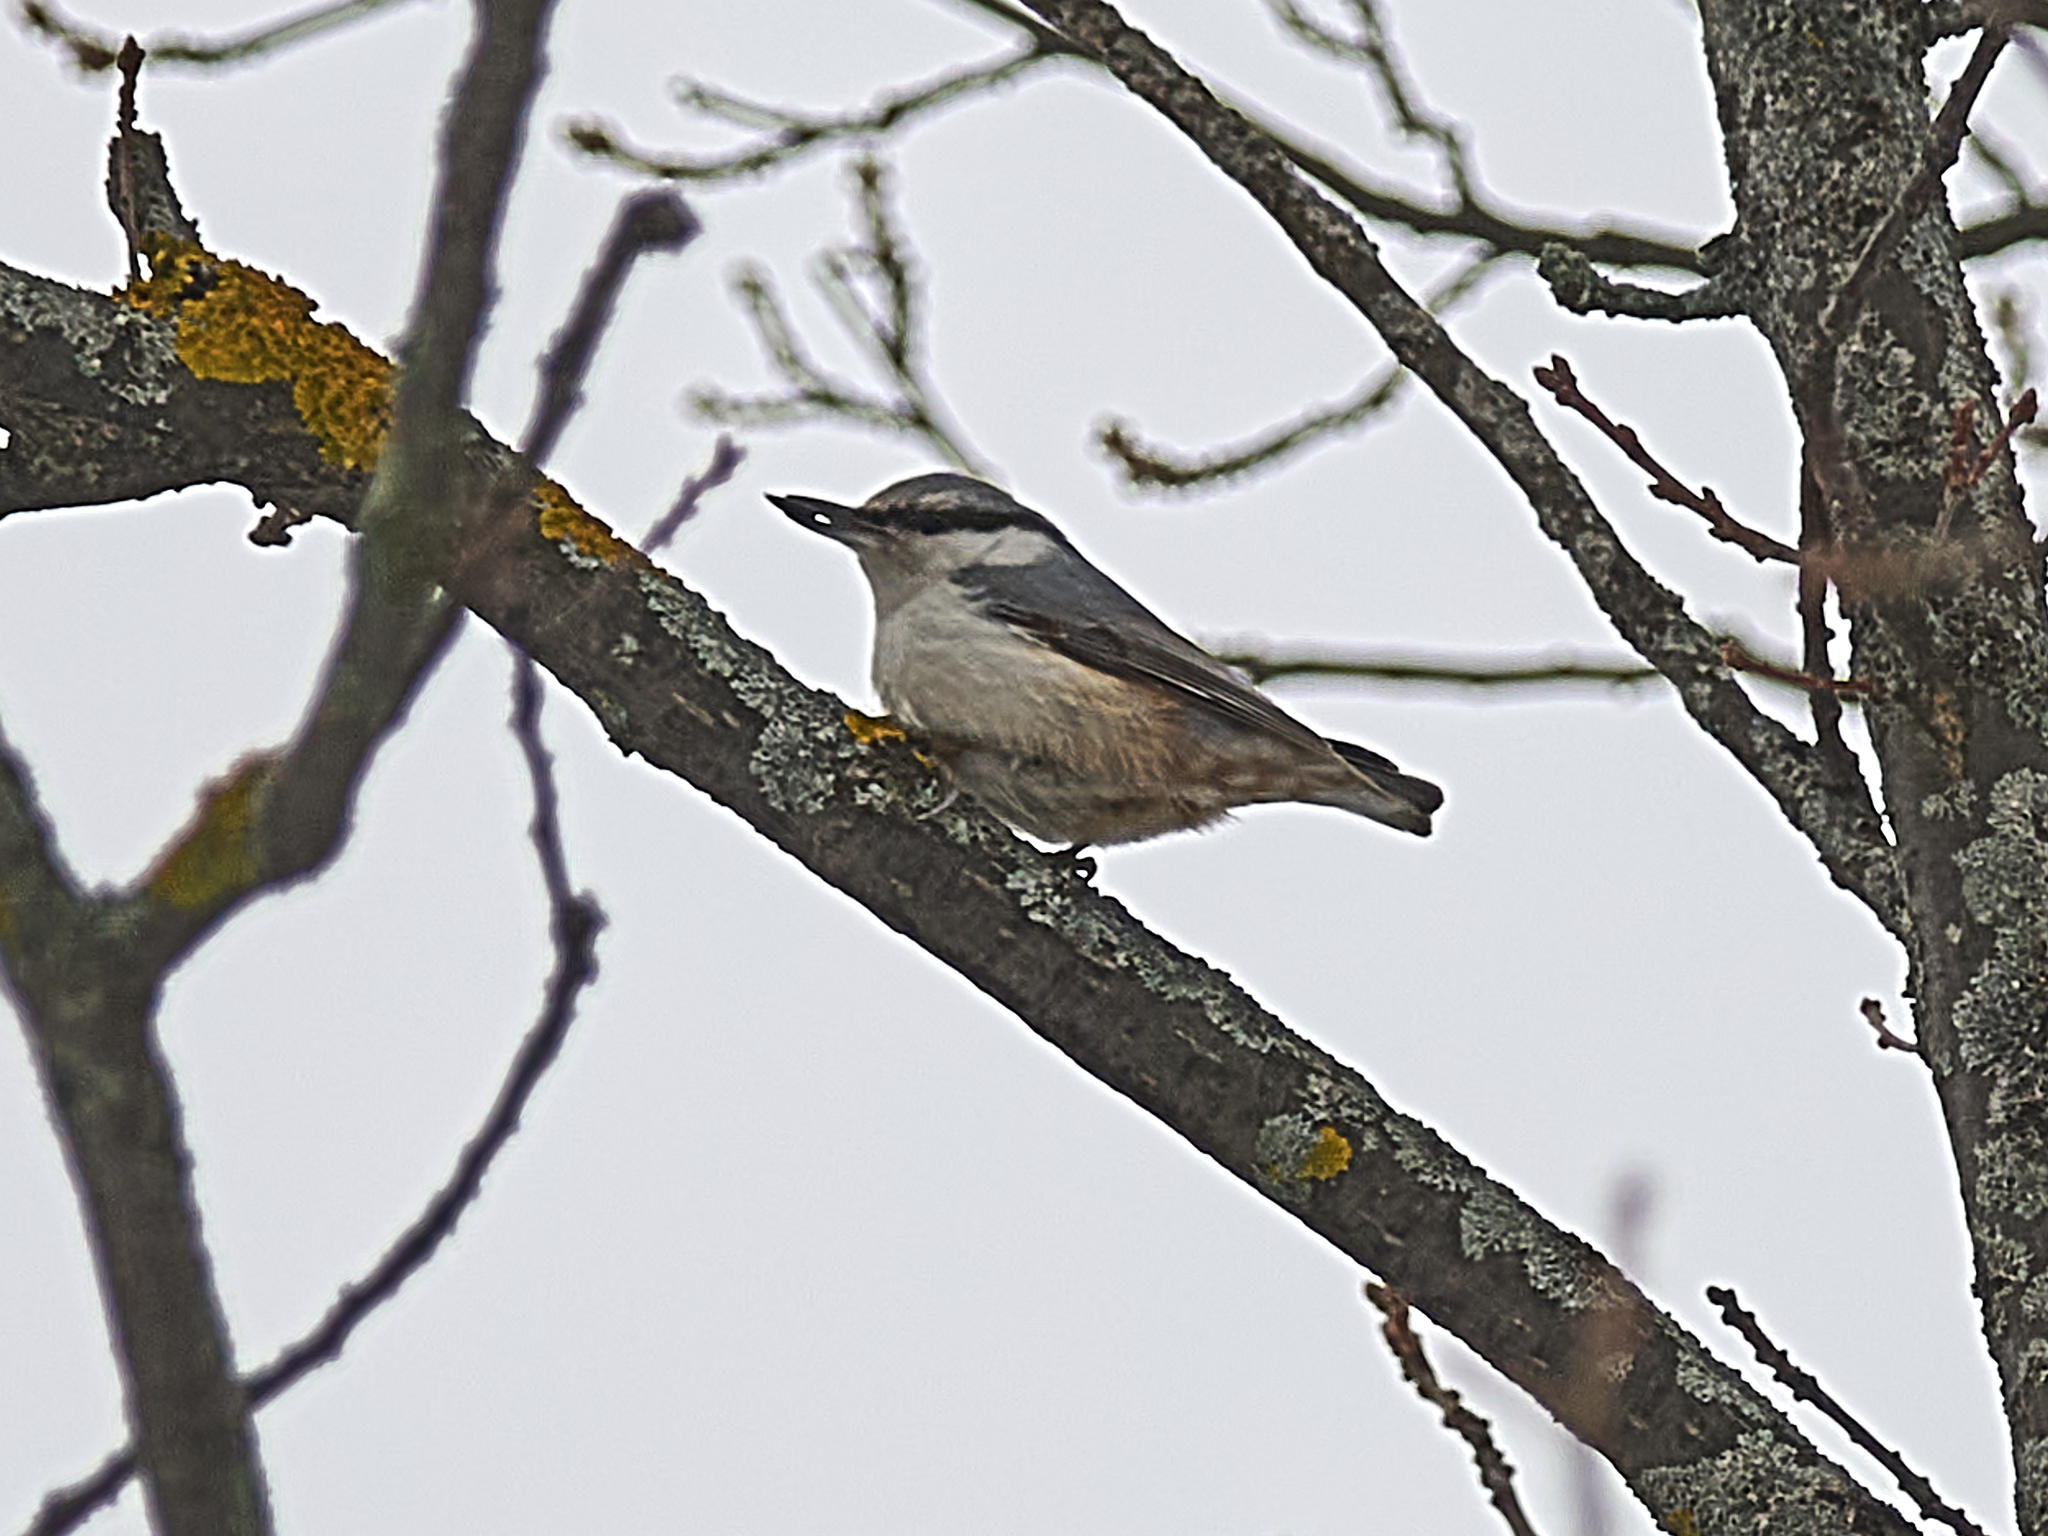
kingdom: Animalia
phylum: Chordata
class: Aves
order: Passeriformes
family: Sittidae
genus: Sitta
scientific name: Sitta europaea
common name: Eurasian nuthatch
